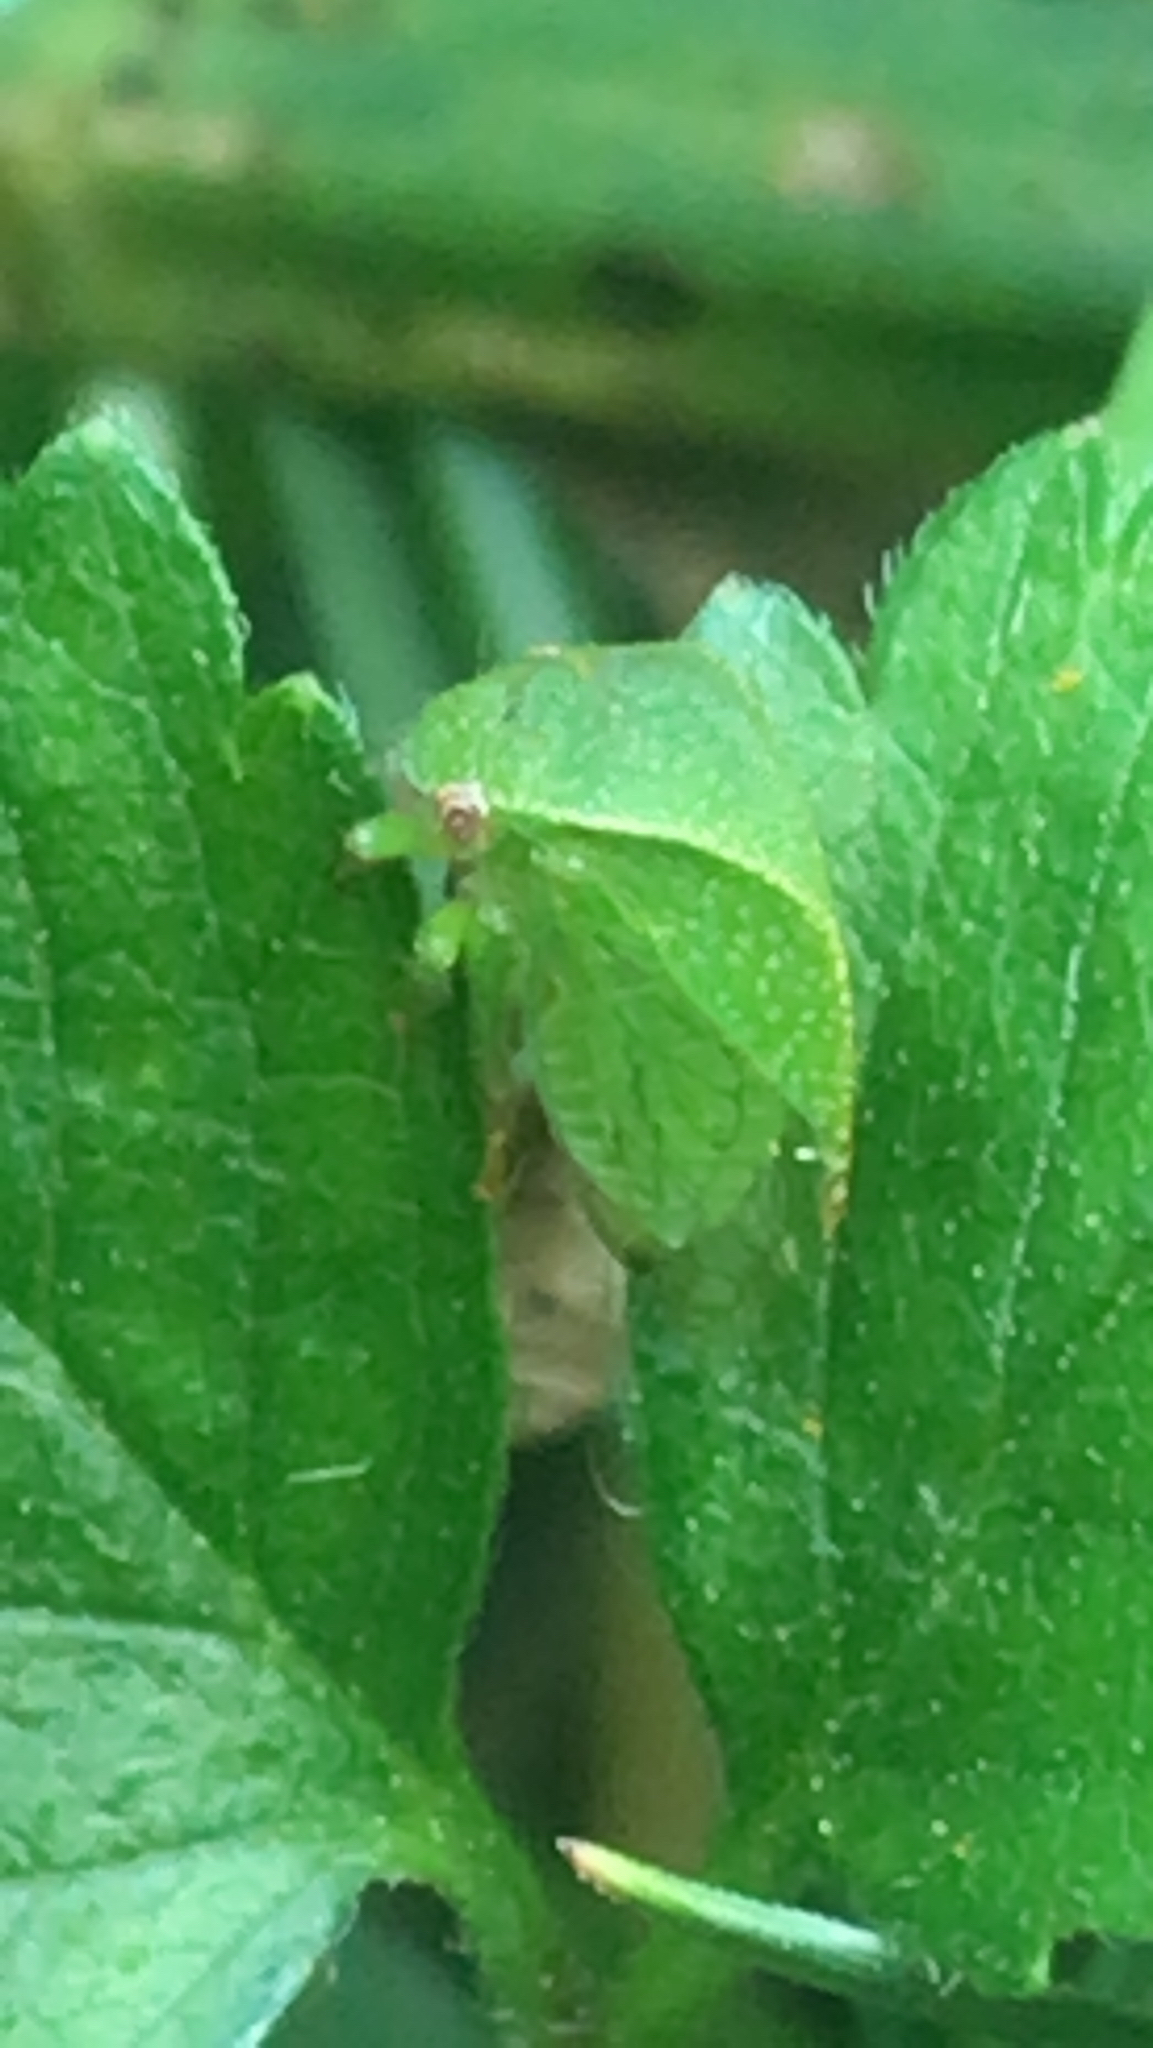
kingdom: Animalia
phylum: Arthropoda
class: Insecta
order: Hemiptera
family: Membracidae
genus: Spissistilus
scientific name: Spissistilus festina
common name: Membracid bug
